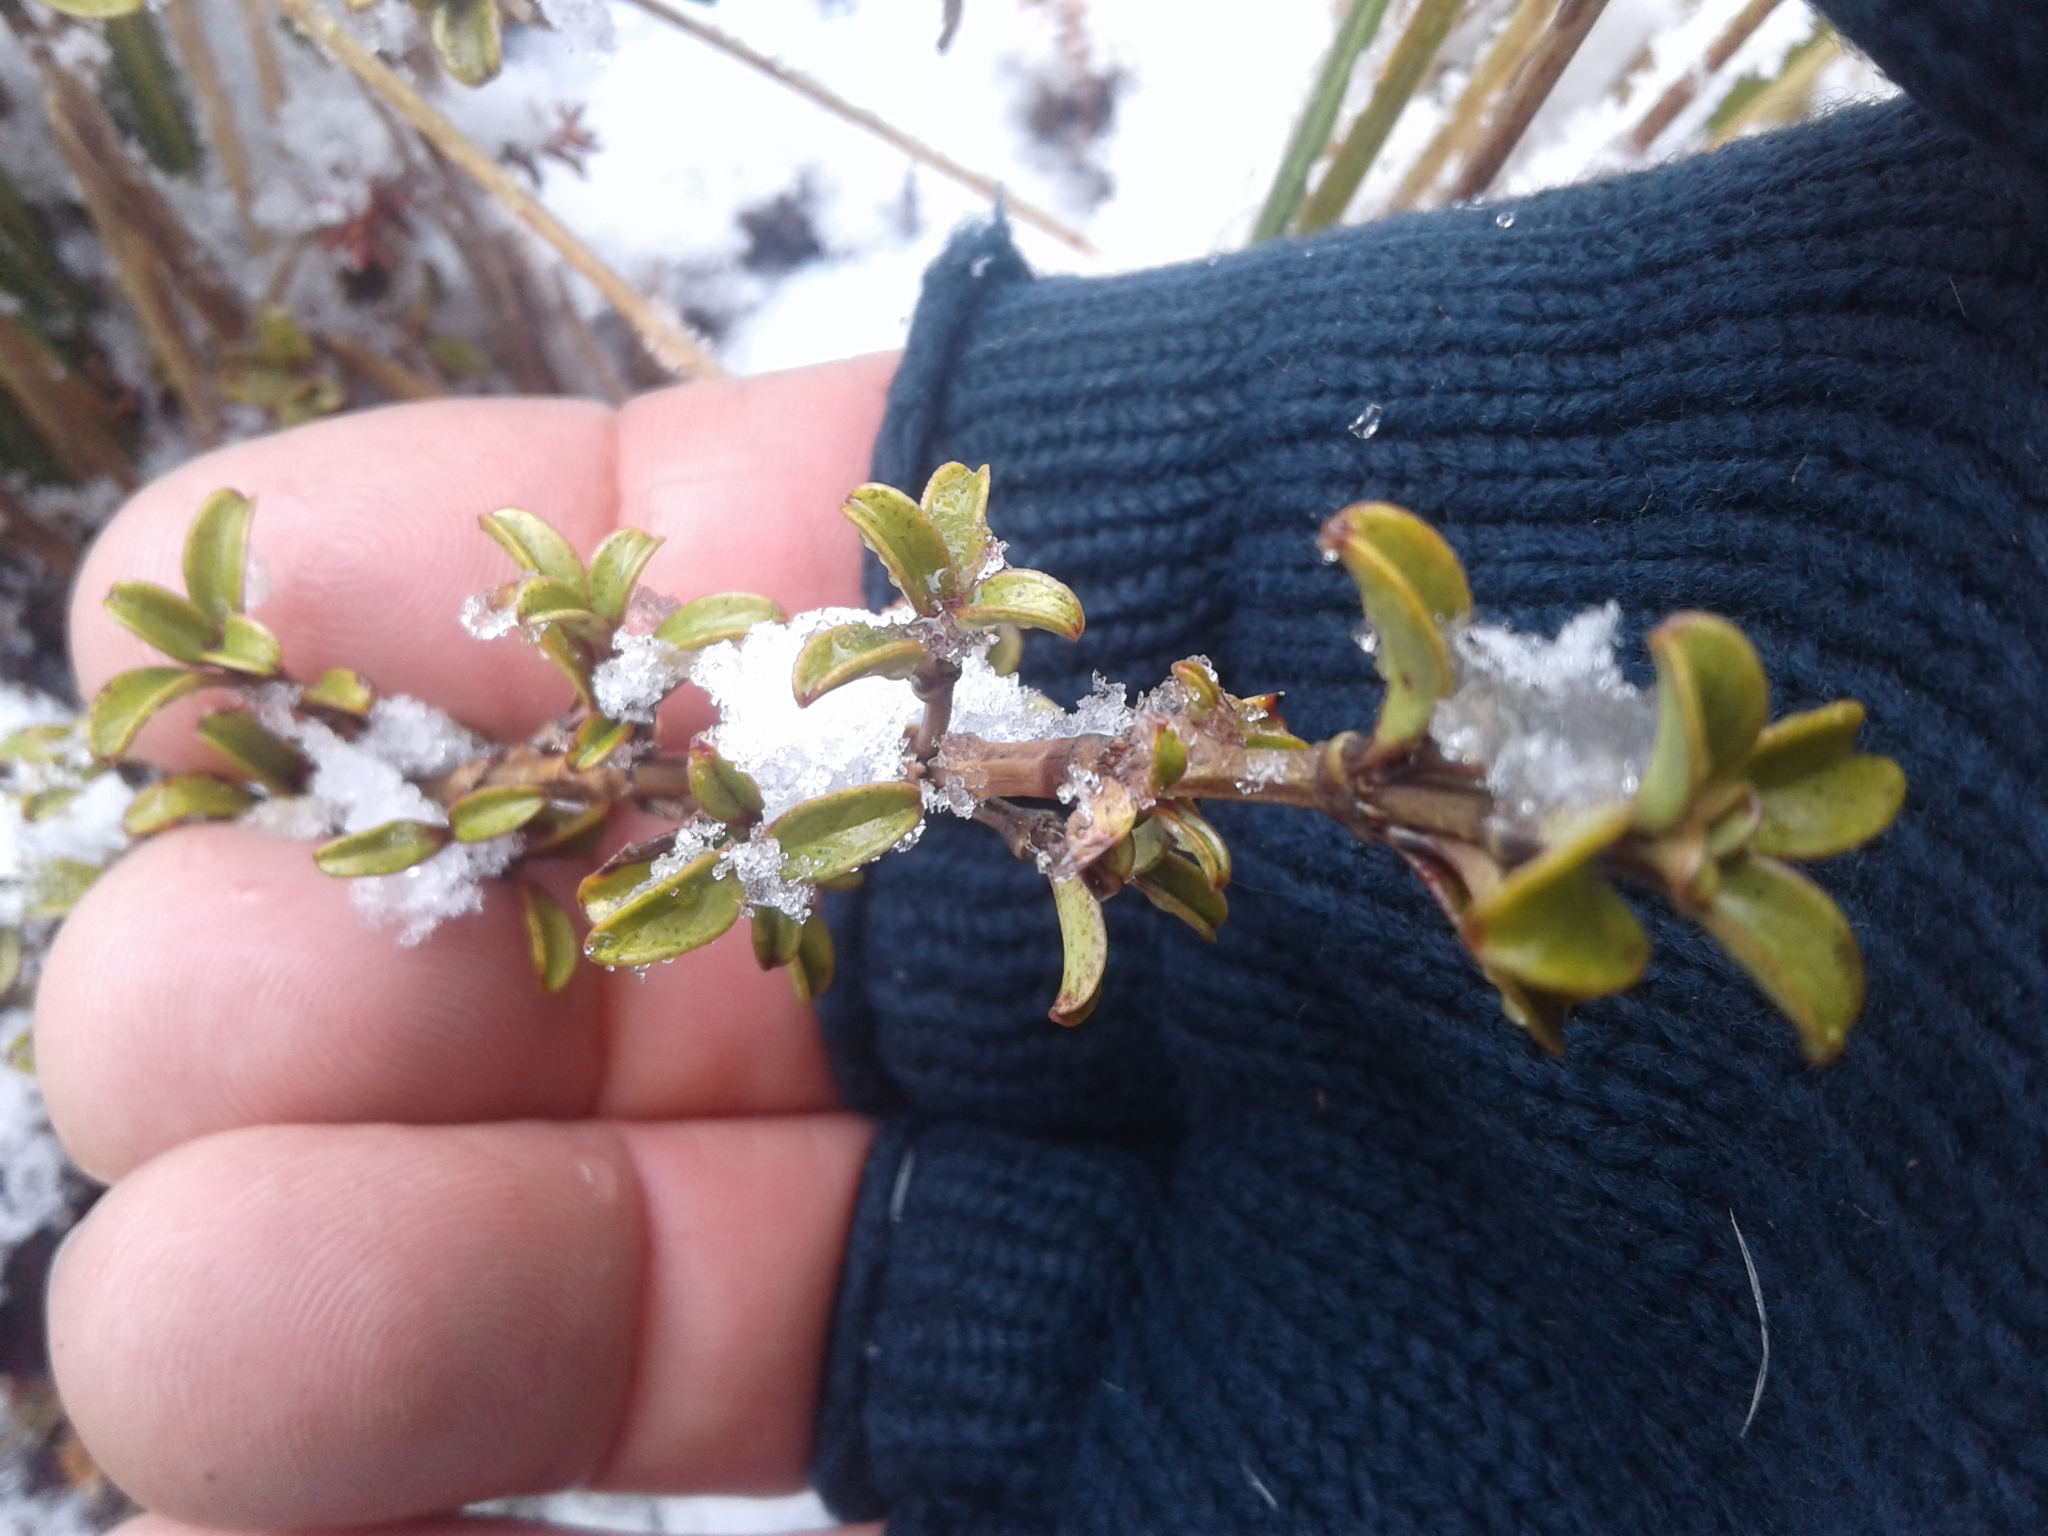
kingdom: Plantae
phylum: Tracheophyta
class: Magnoliopsida
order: Gentianales
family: Rubiaceae
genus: Coprosma
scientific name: Coprosma crenulata
